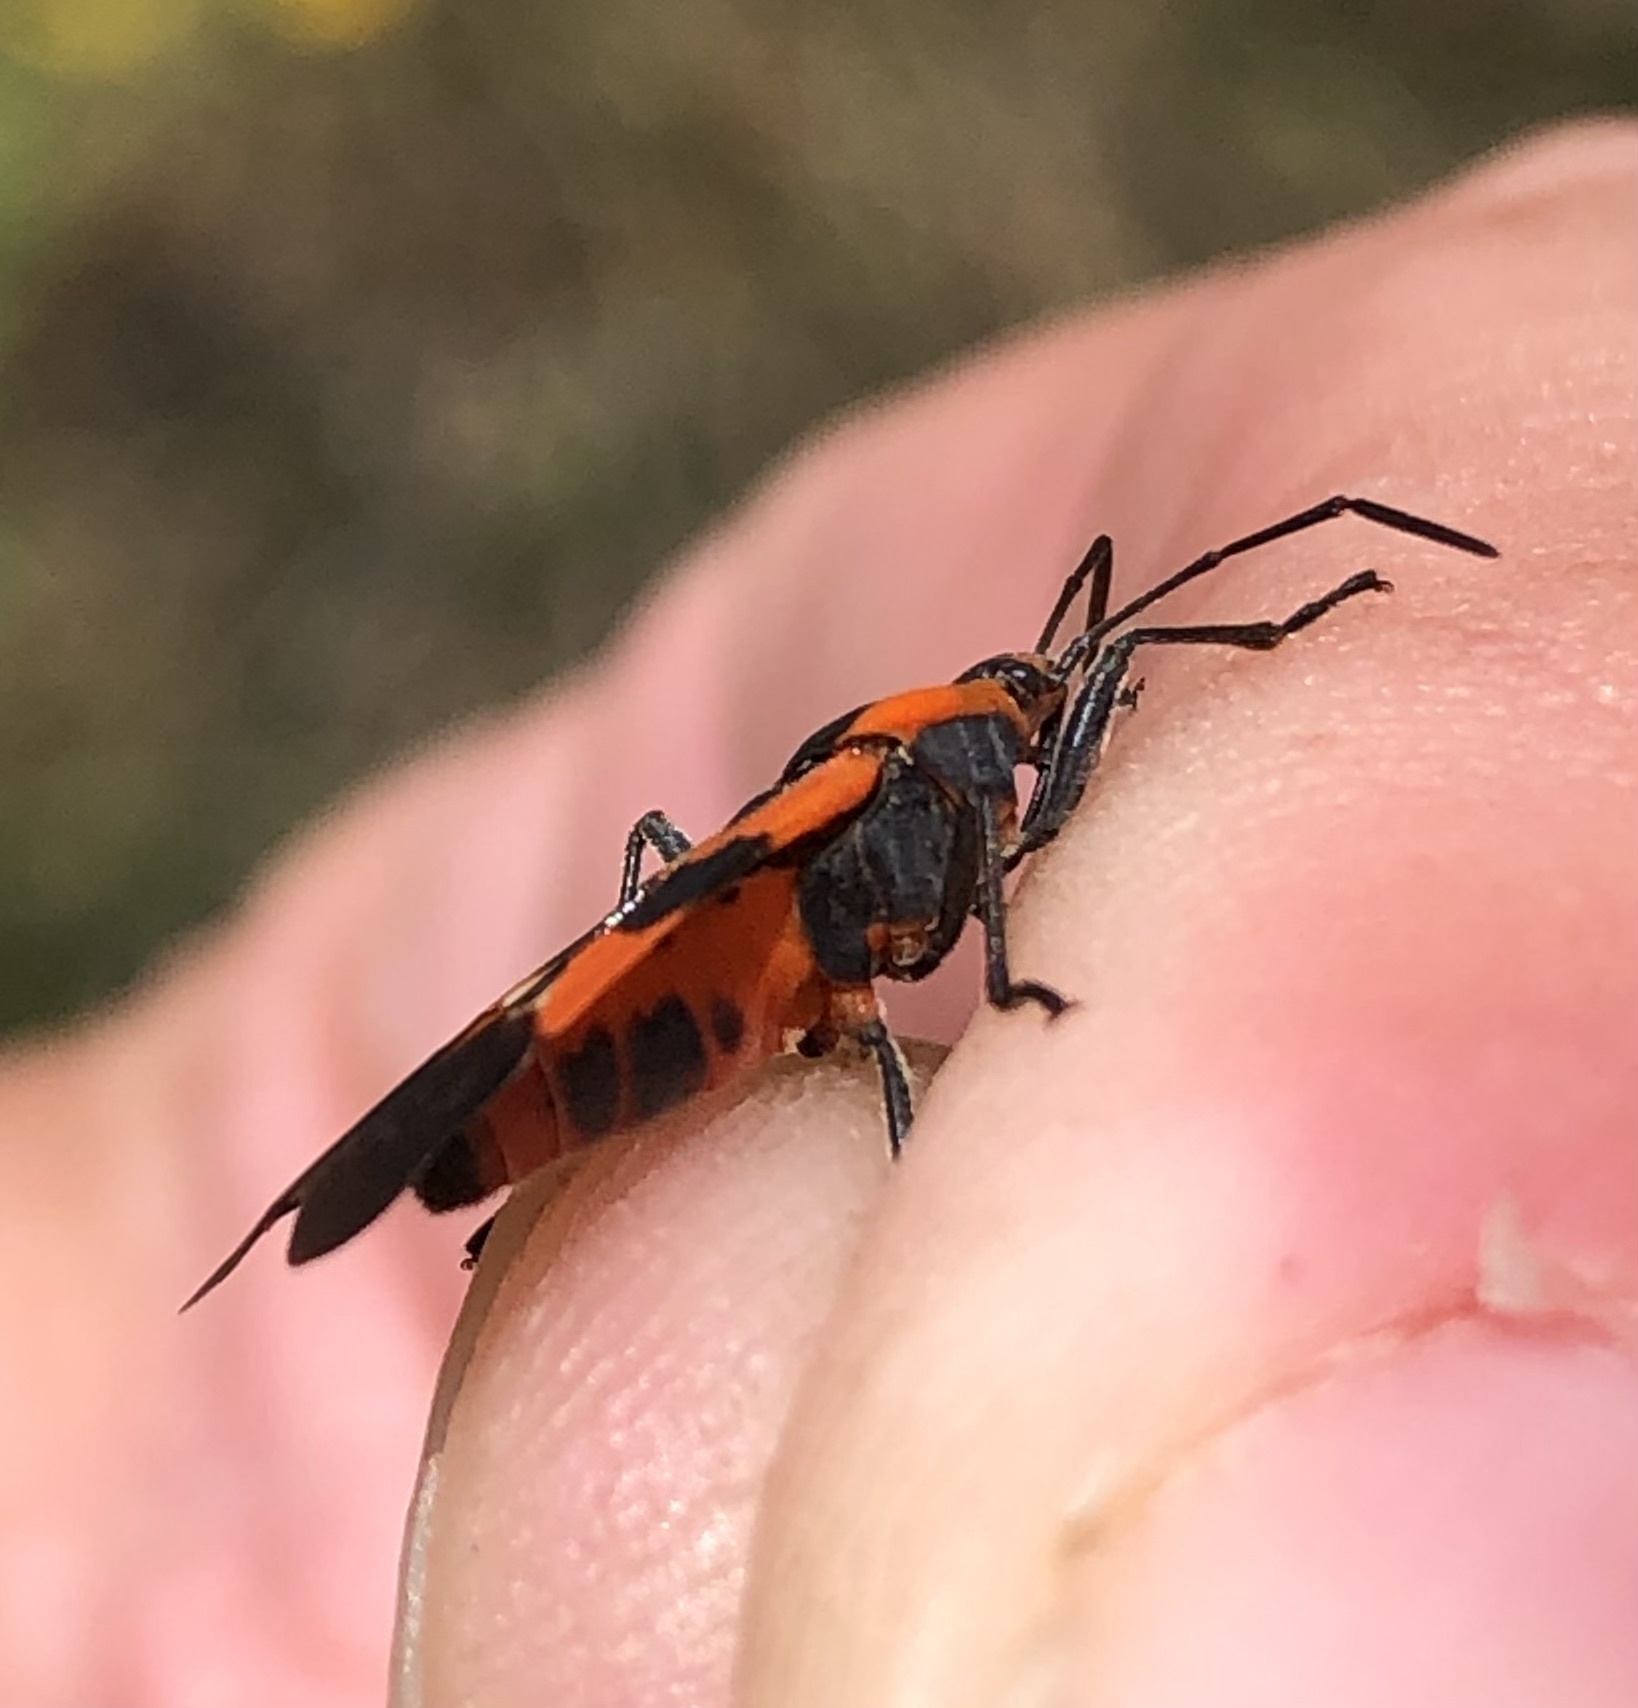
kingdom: Animalia
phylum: Arthropoda
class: Insecta
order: Hemiptera
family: Lygaeidae
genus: Oncopeltus
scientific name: Oncopeltus fasciatus
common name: Large milkweed bug
